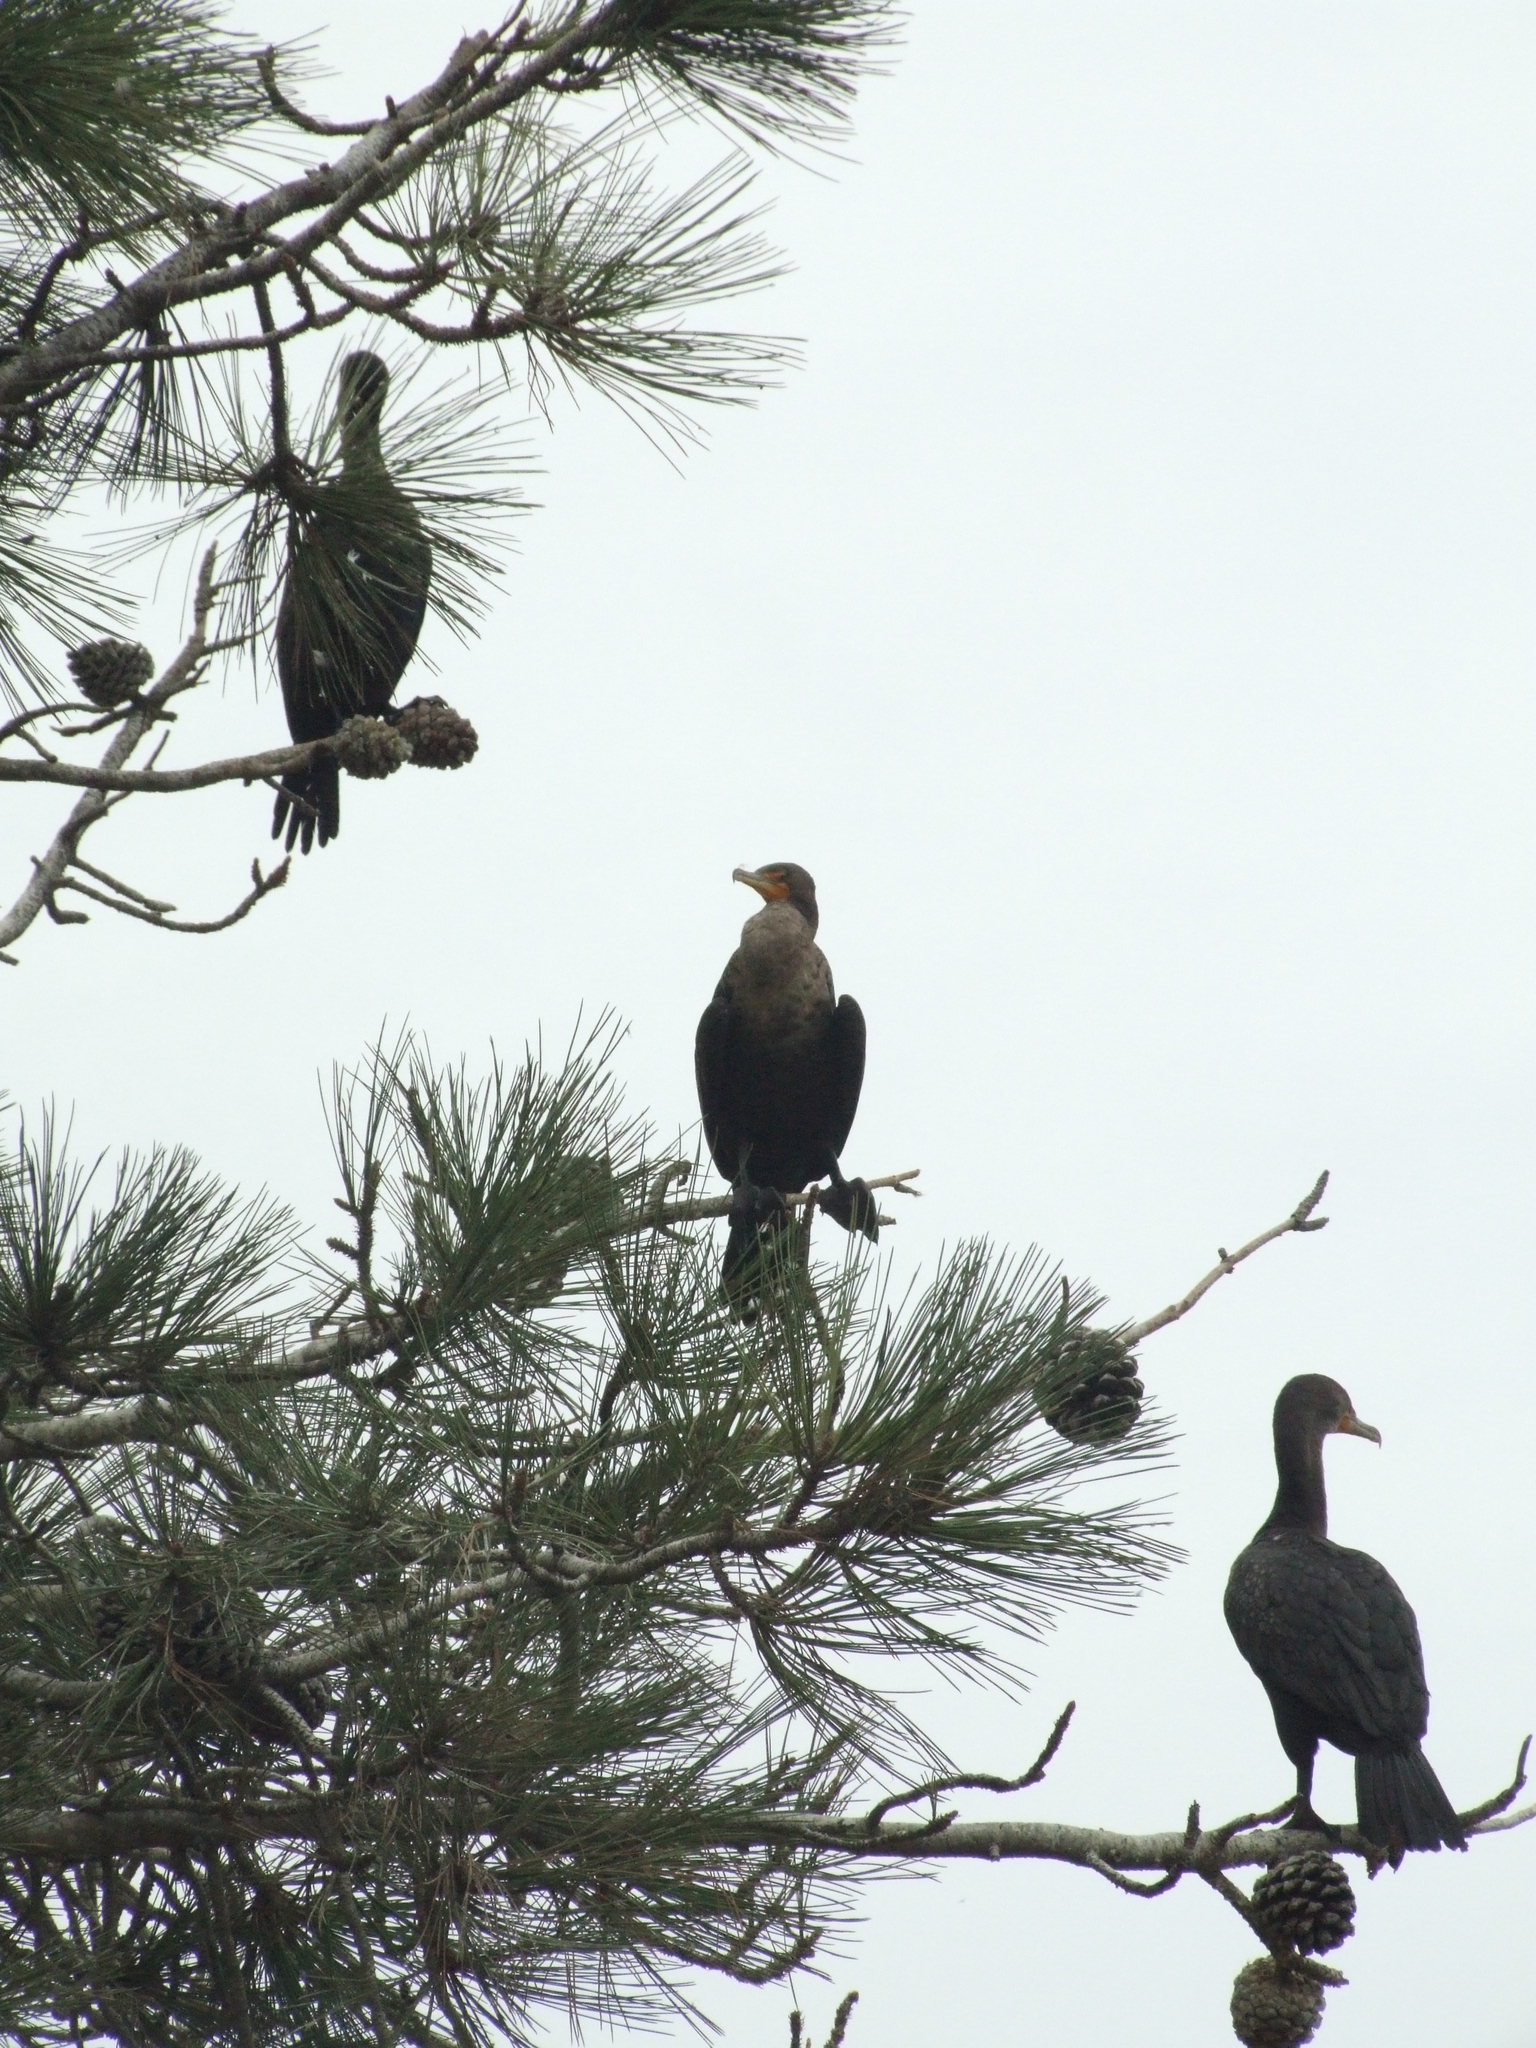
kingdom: Animalia
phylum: Chordata
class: Aves
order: Suliformes
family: Phalacrocoracidae
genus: Phalacrocorax
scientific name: Phalacrocorax auritus
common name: Double-crested cormorant
